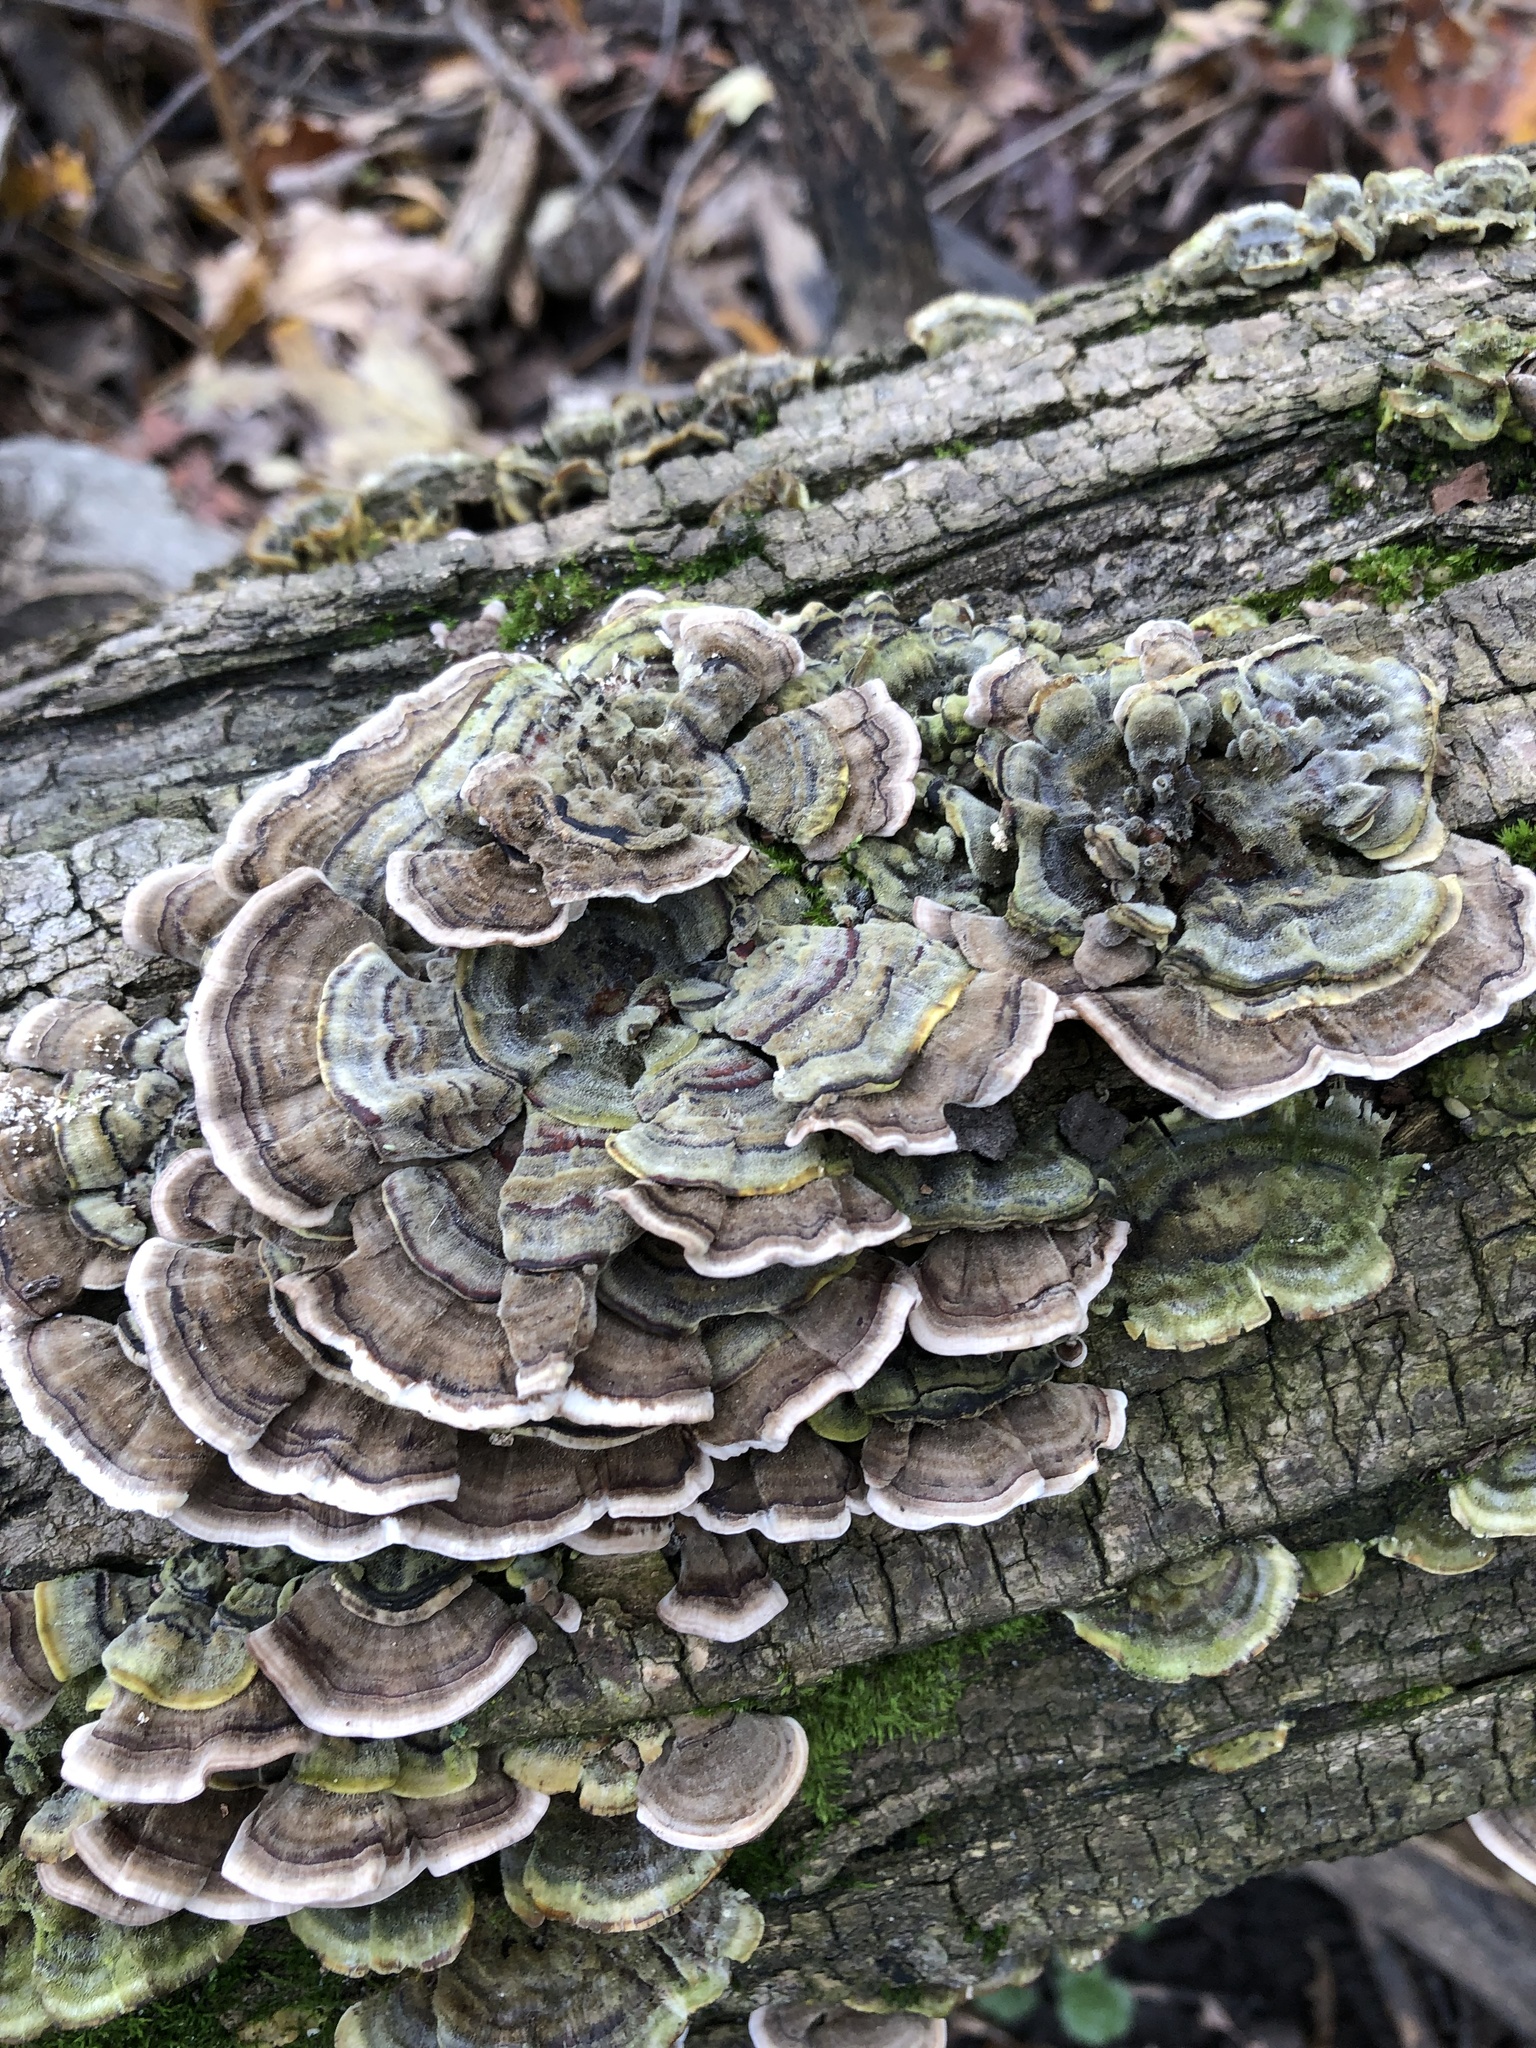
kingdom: Fungi
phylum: Basidiomycota
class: Agaricomycetes
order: Polyporales
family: Polyporaceae
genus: Trametes
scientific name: Trametes versicolor
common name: Turkeytail
